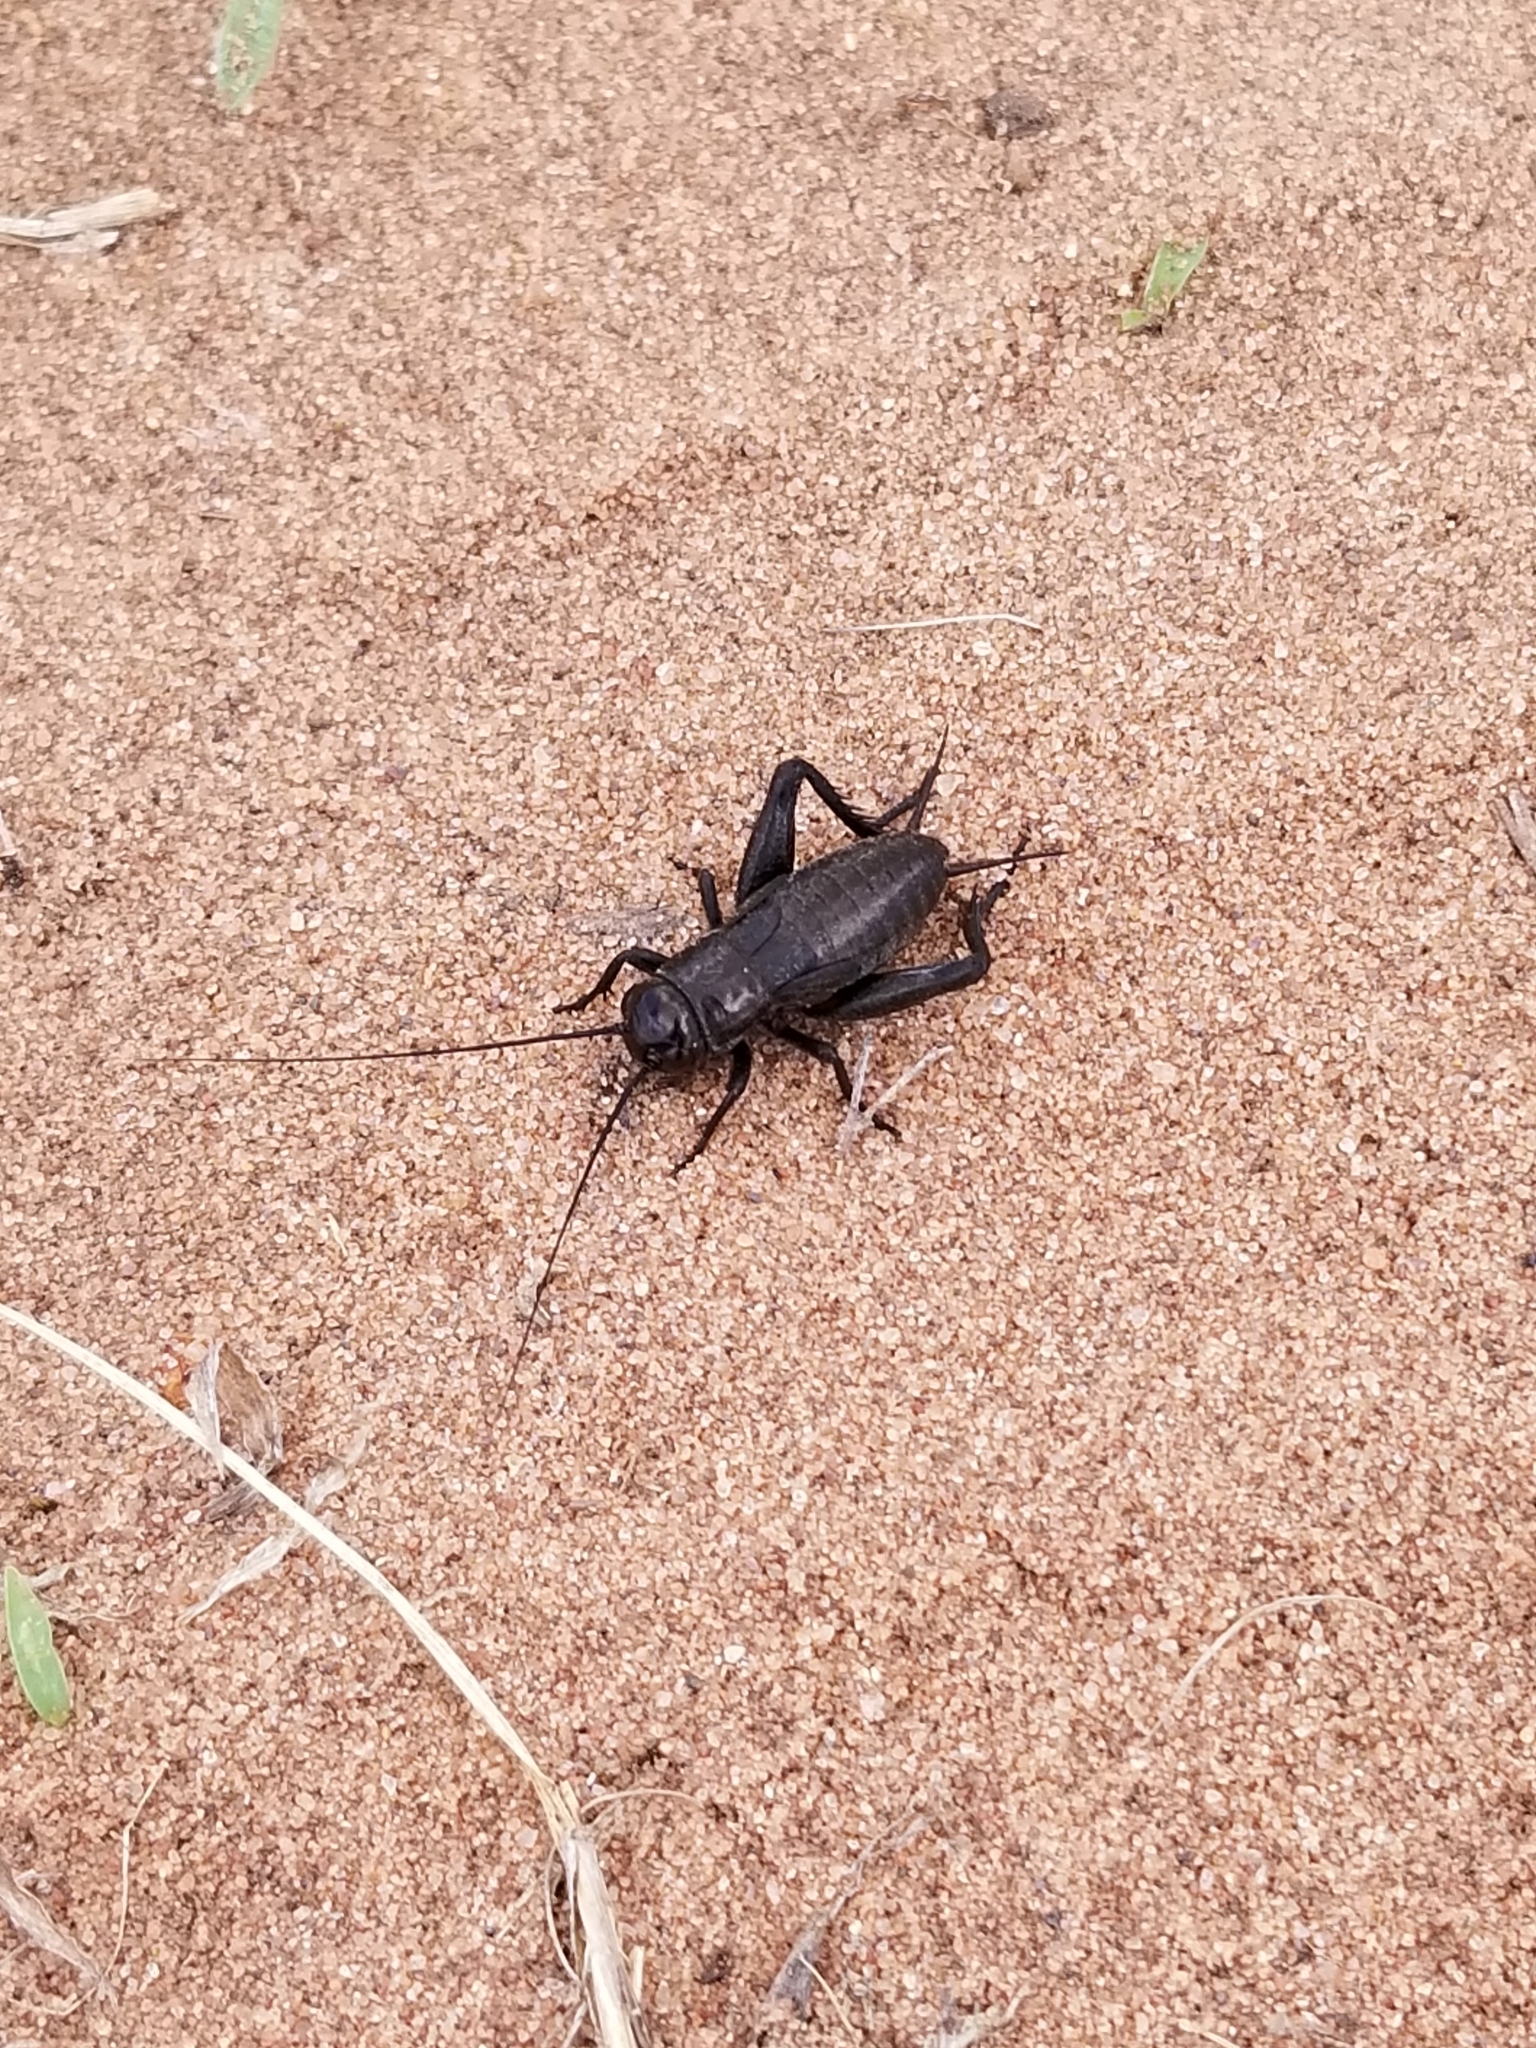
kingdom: Animalia
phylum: Arthropoda
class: Insecta
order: Orthoptera
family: Gryllidae
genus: Gryllus
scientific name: Gryllus veletis
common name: Spring field cricket
